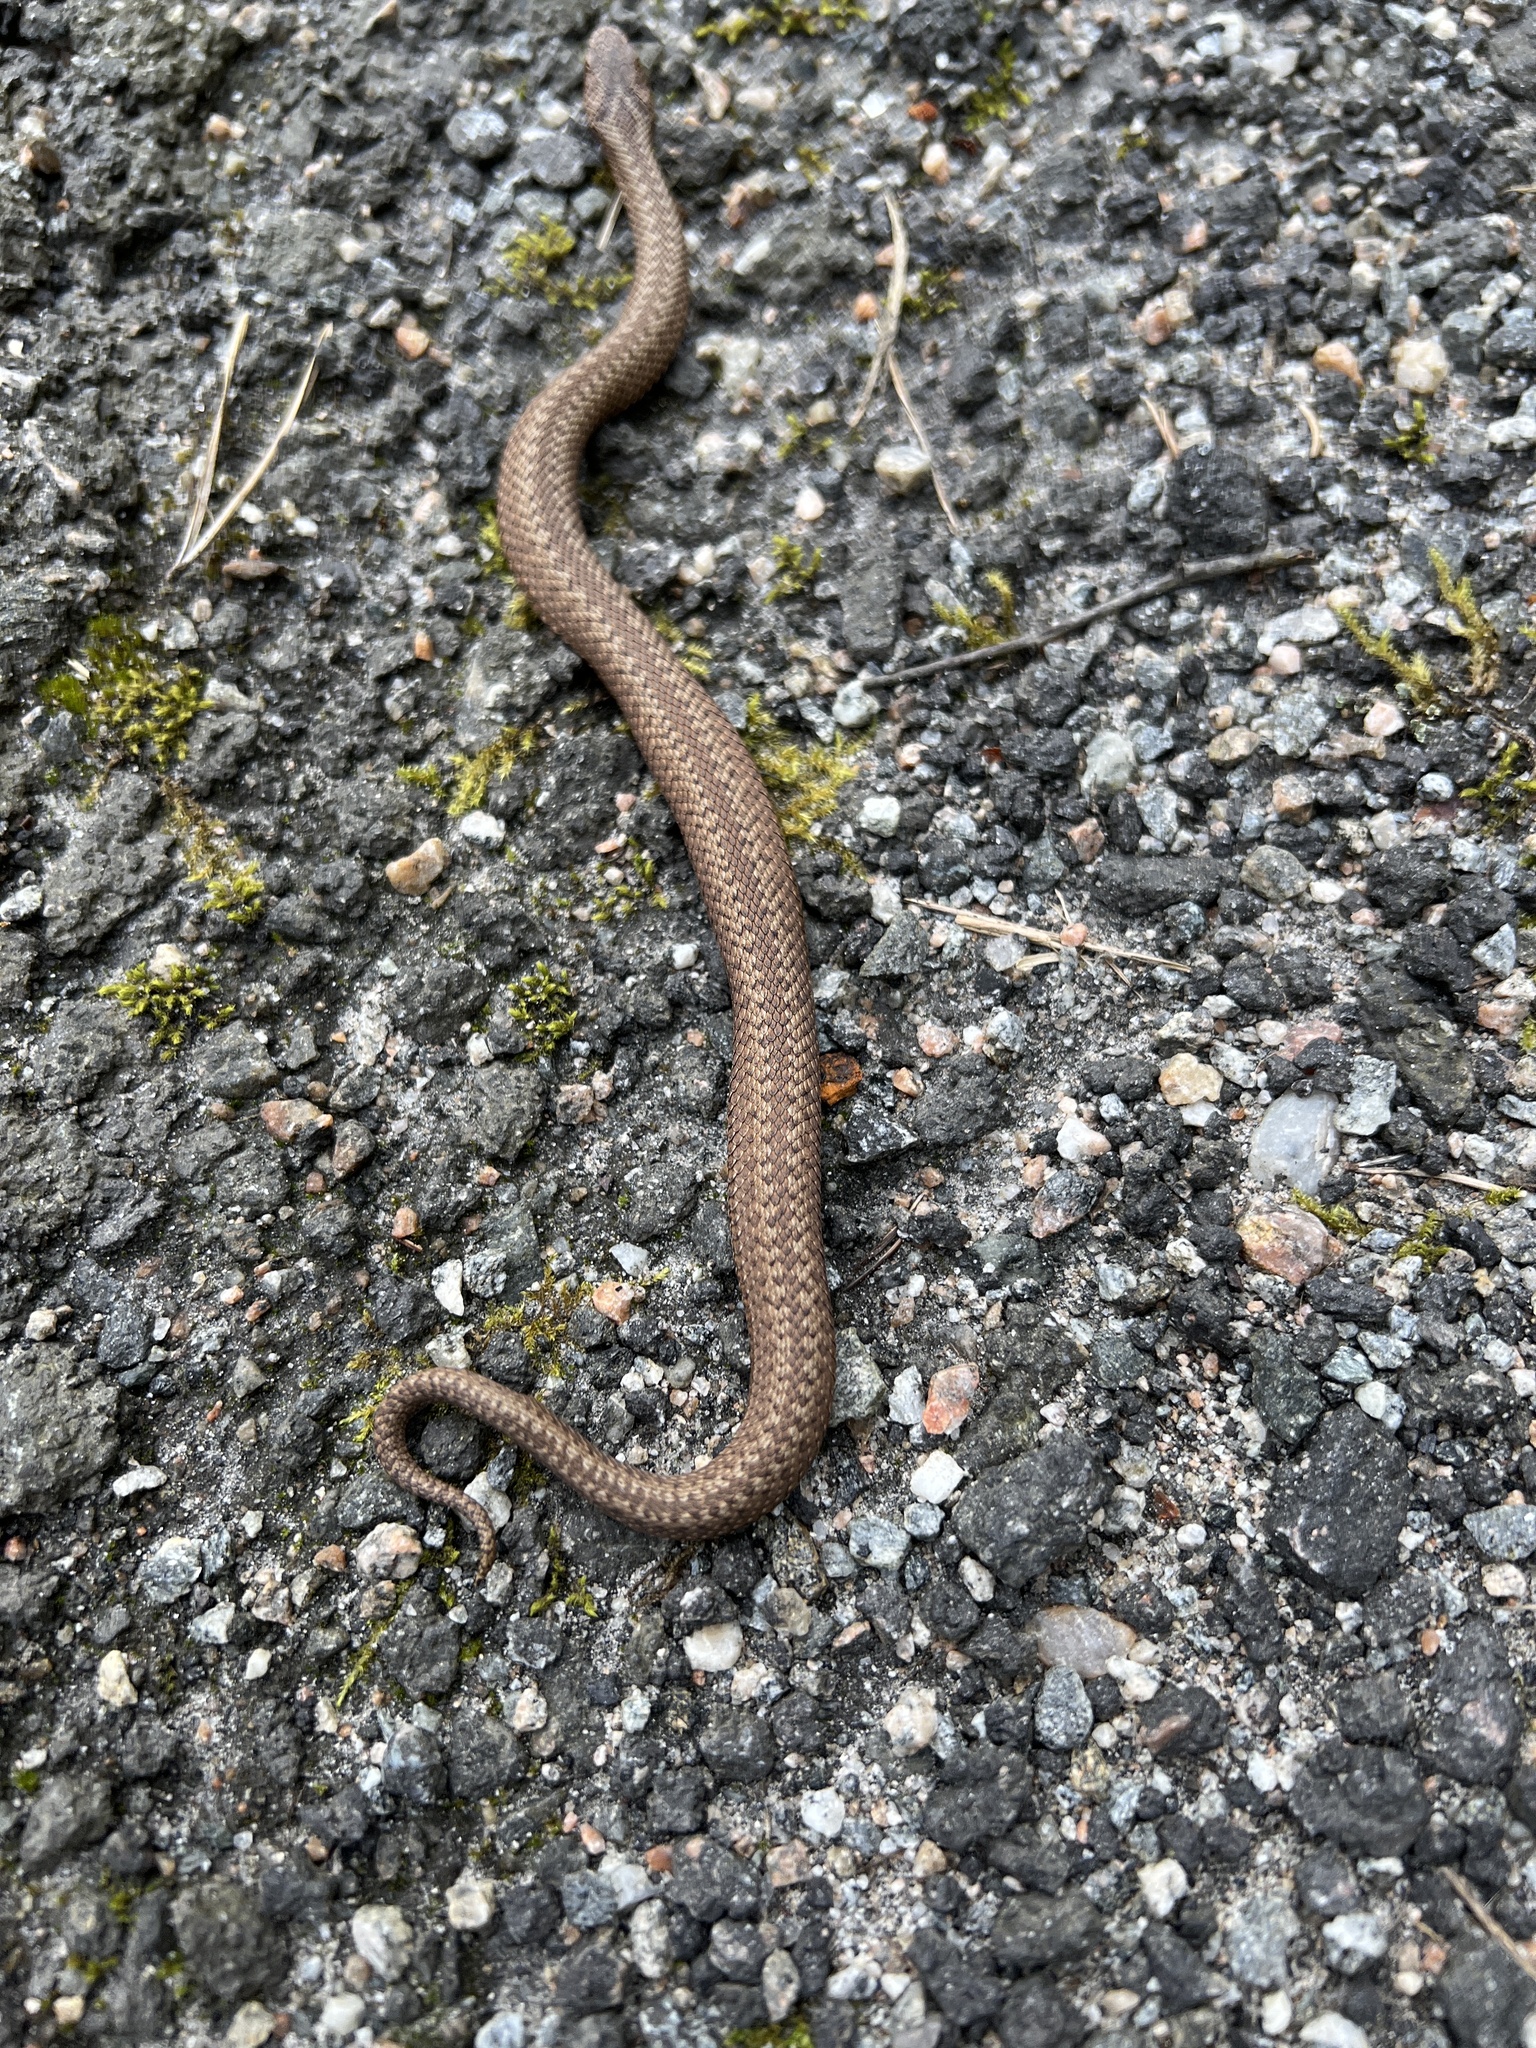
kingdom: Animalia
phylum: Chordata
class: Squamata
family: Viperidae
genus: Vipera
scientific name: Vipera berus
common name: Adder
